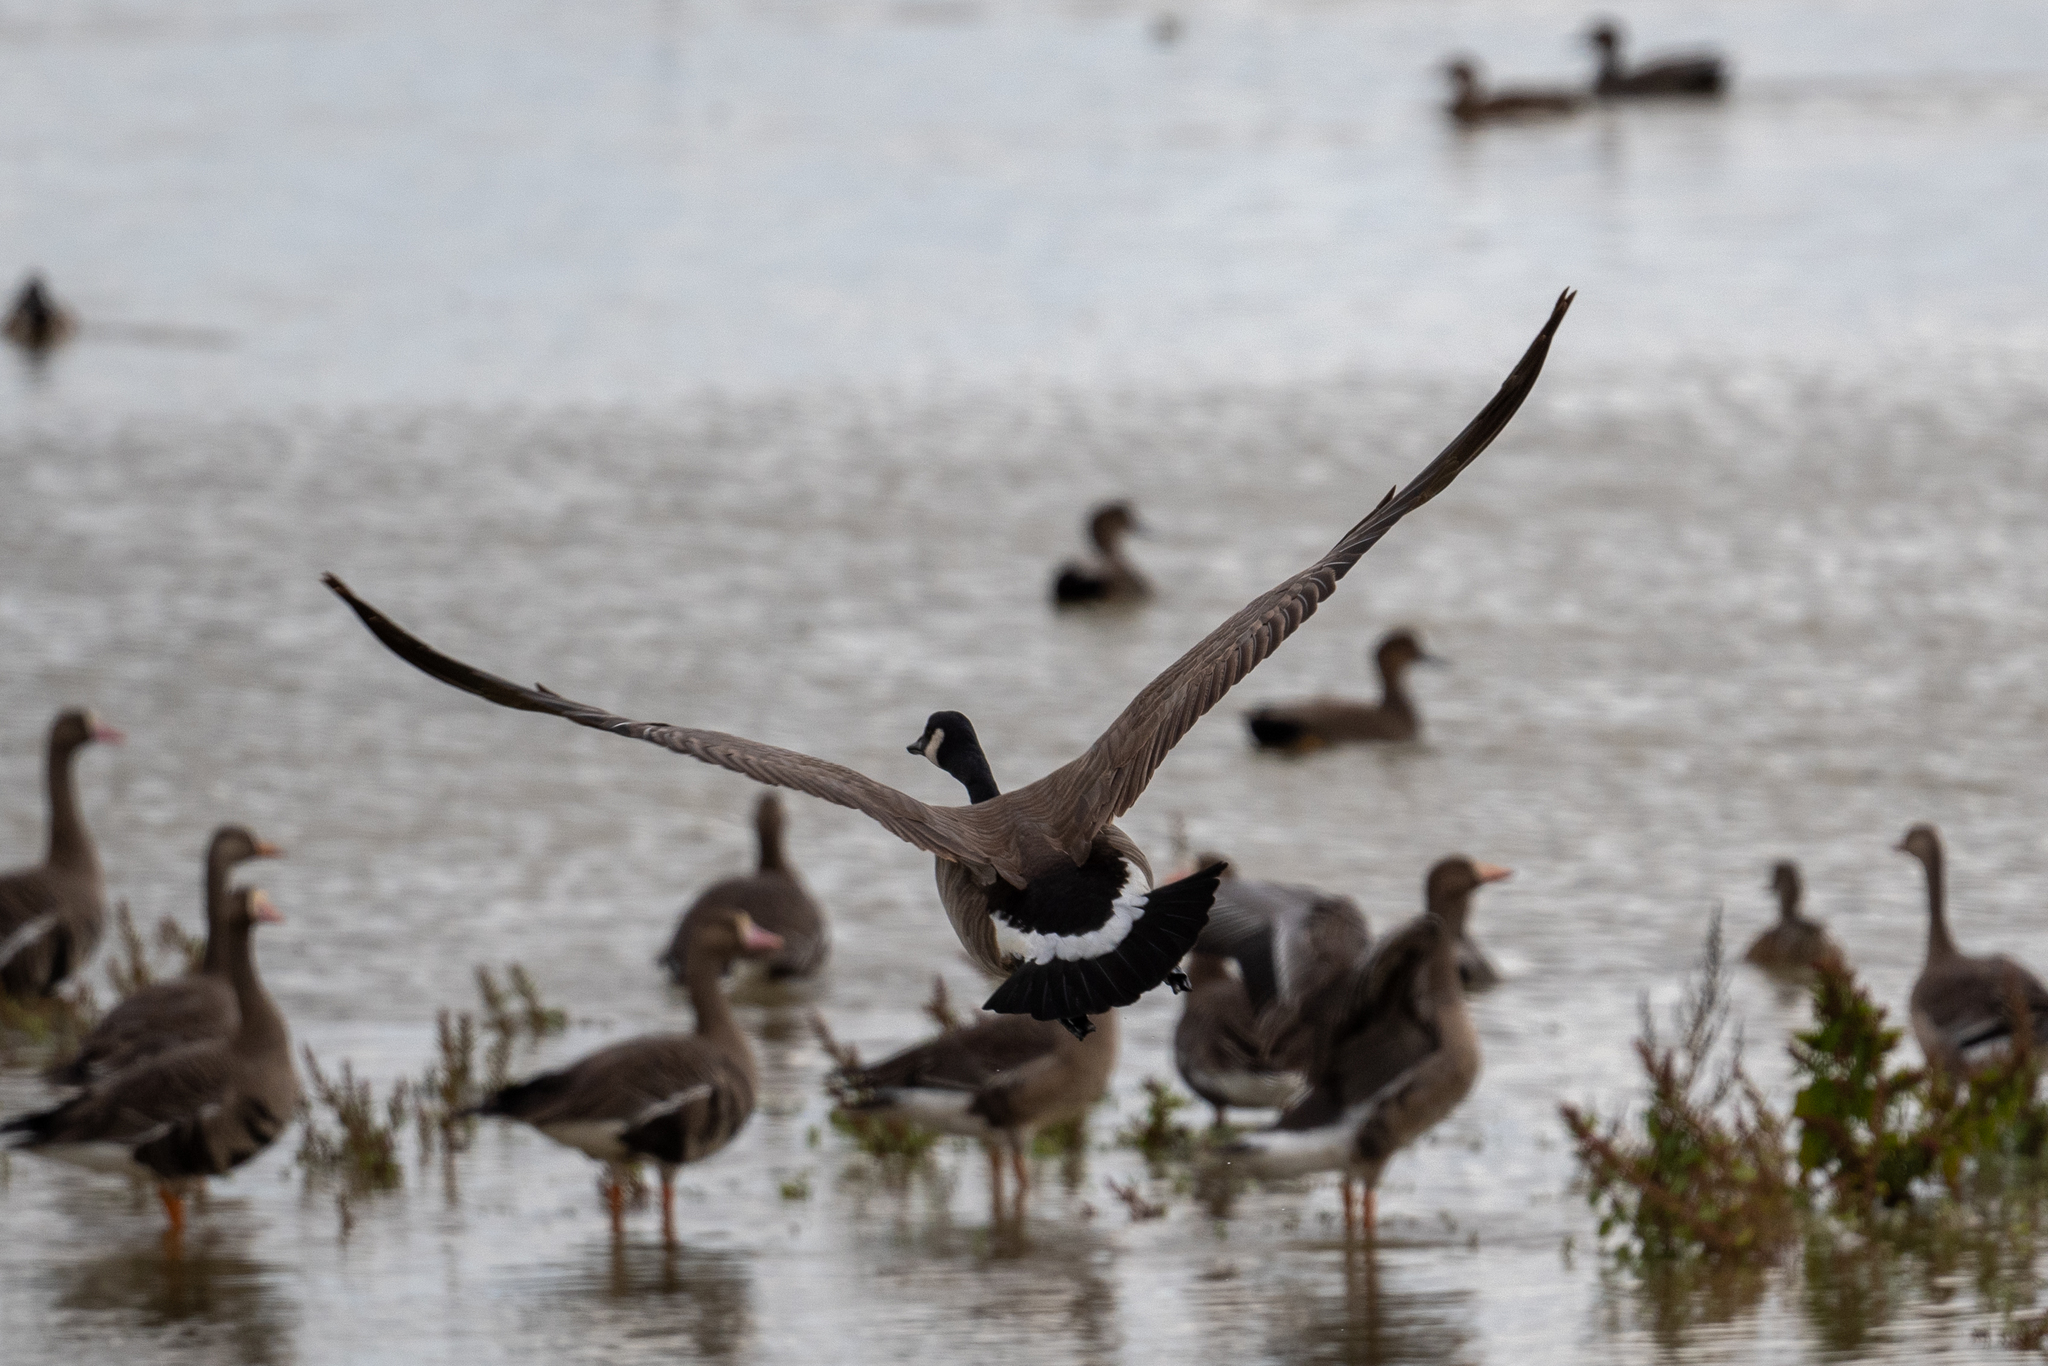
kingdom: Animalia
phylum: Chordata
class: Aves
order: Anseriformes
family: Anatidae
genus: Branta
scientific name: Branta canadensis
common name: Canada goose
